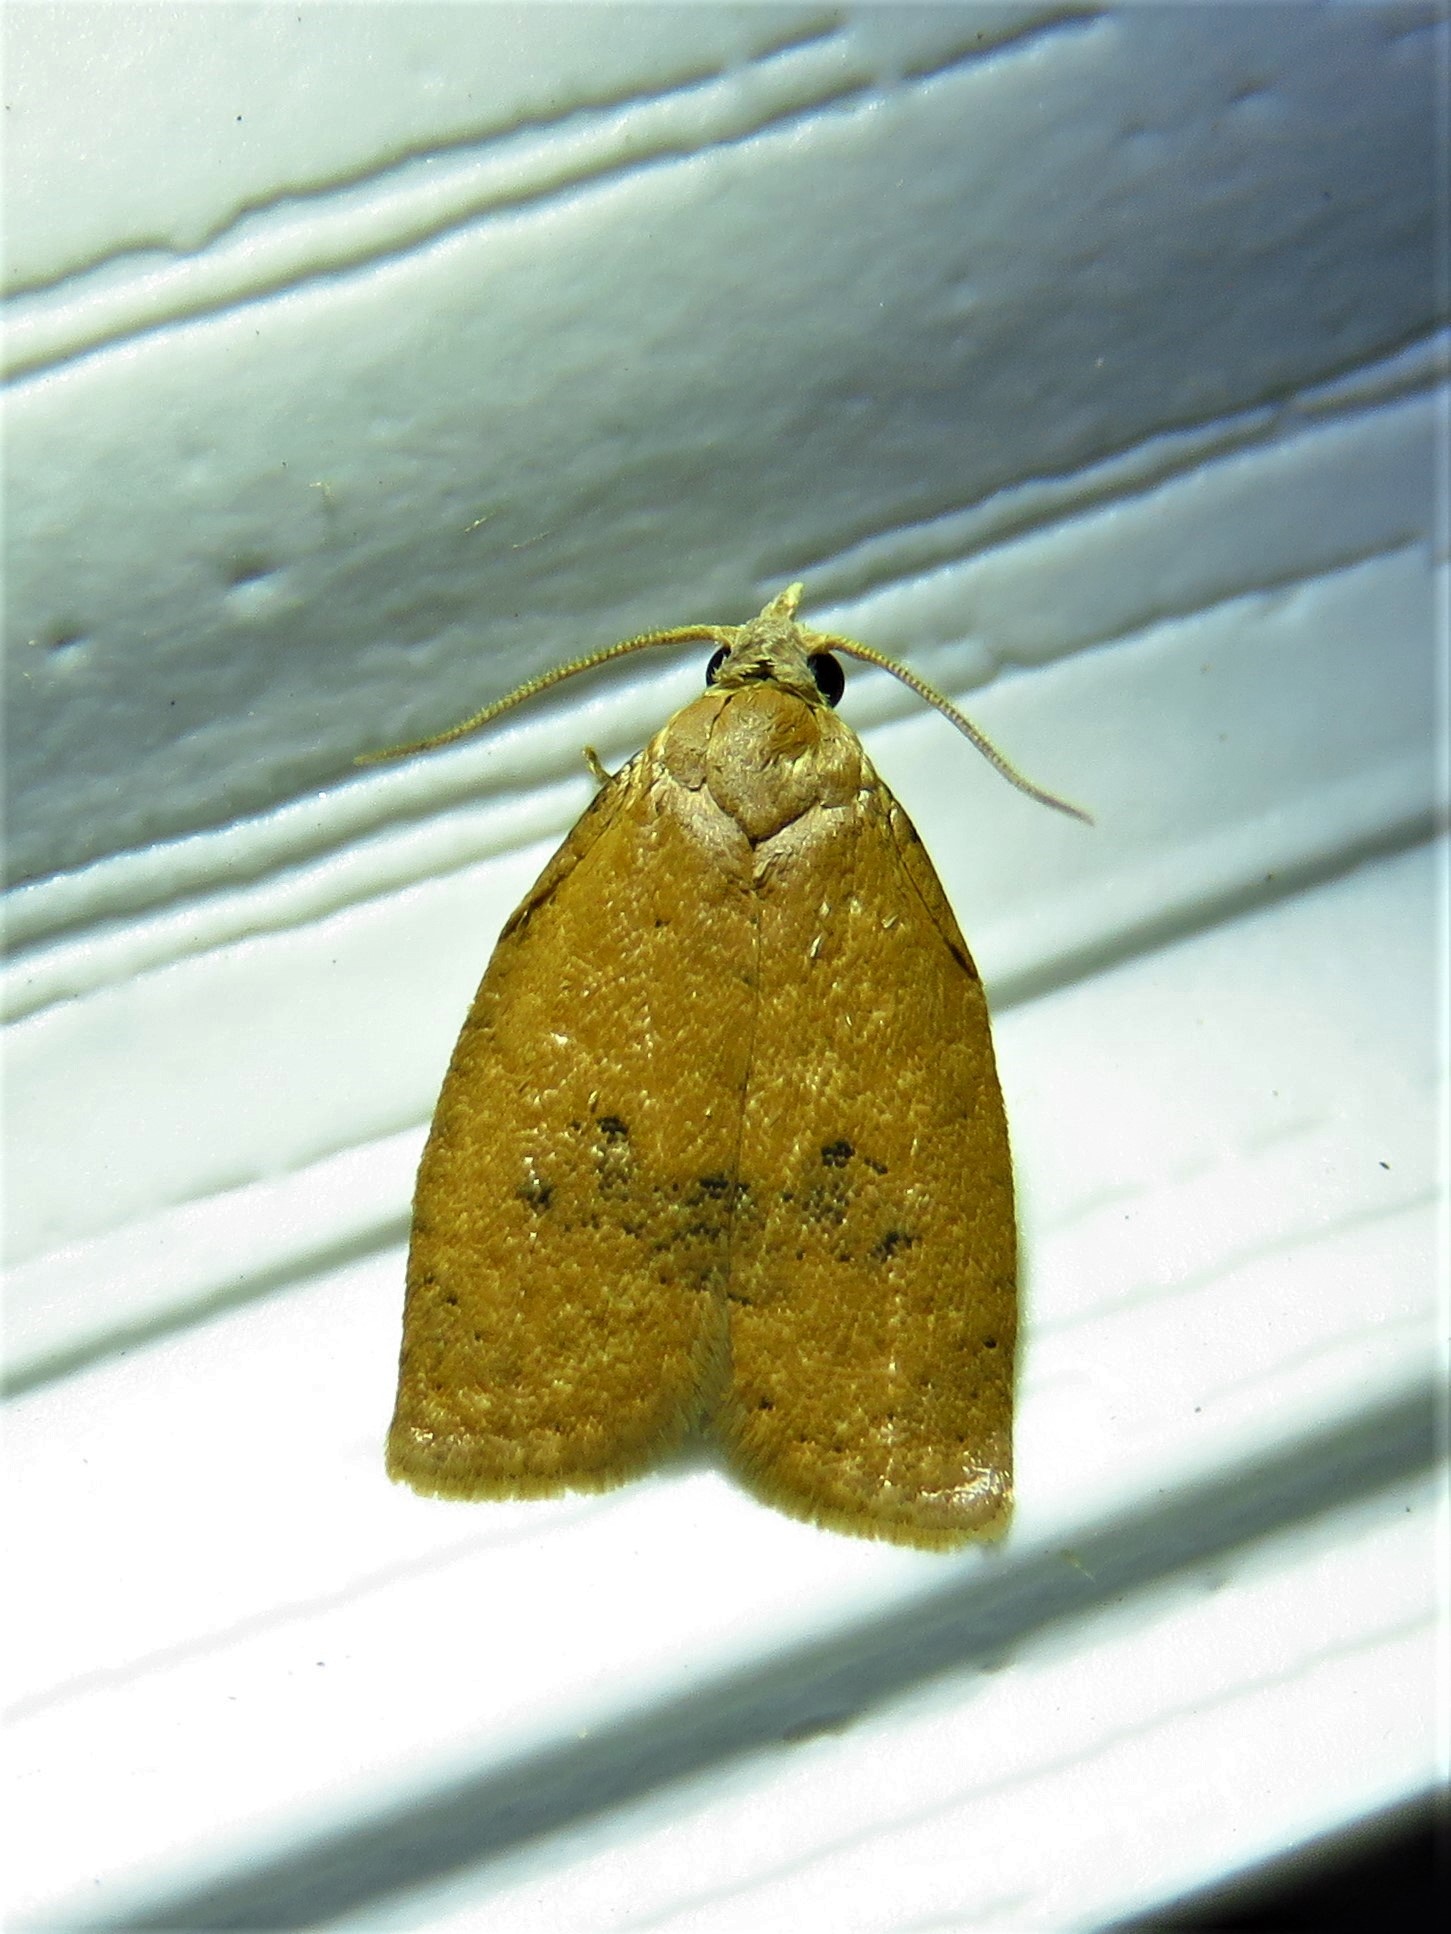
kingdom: Animalia
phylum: Arthropoda
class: Insecta
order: Lepidoptera
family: Tortricidae
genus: Sparganothoides
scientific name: Sparganothoides lentiginosana
